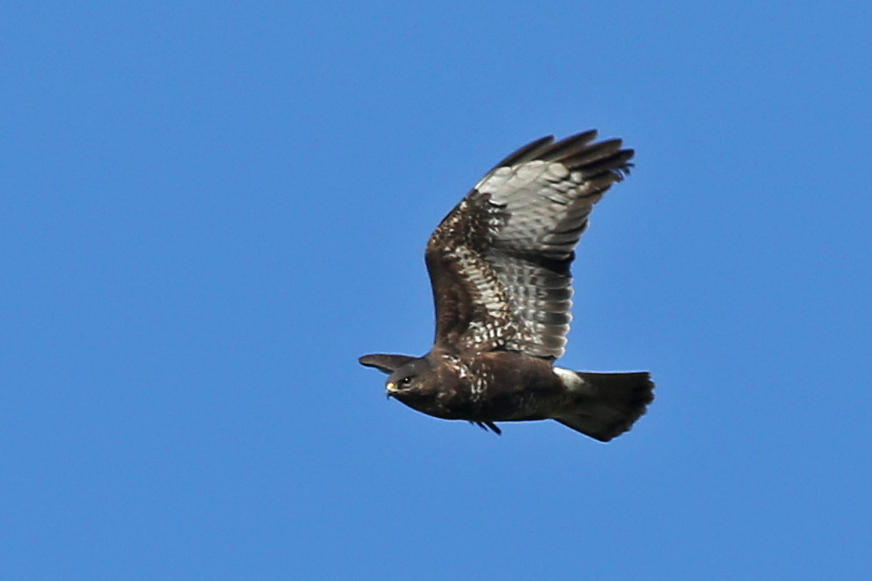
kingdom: Animalia
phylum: Chordata
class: Aves
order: Accipitriformes
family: Accipitridae
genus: Buteo
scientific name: Buteo buteo
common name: Common buzzard
